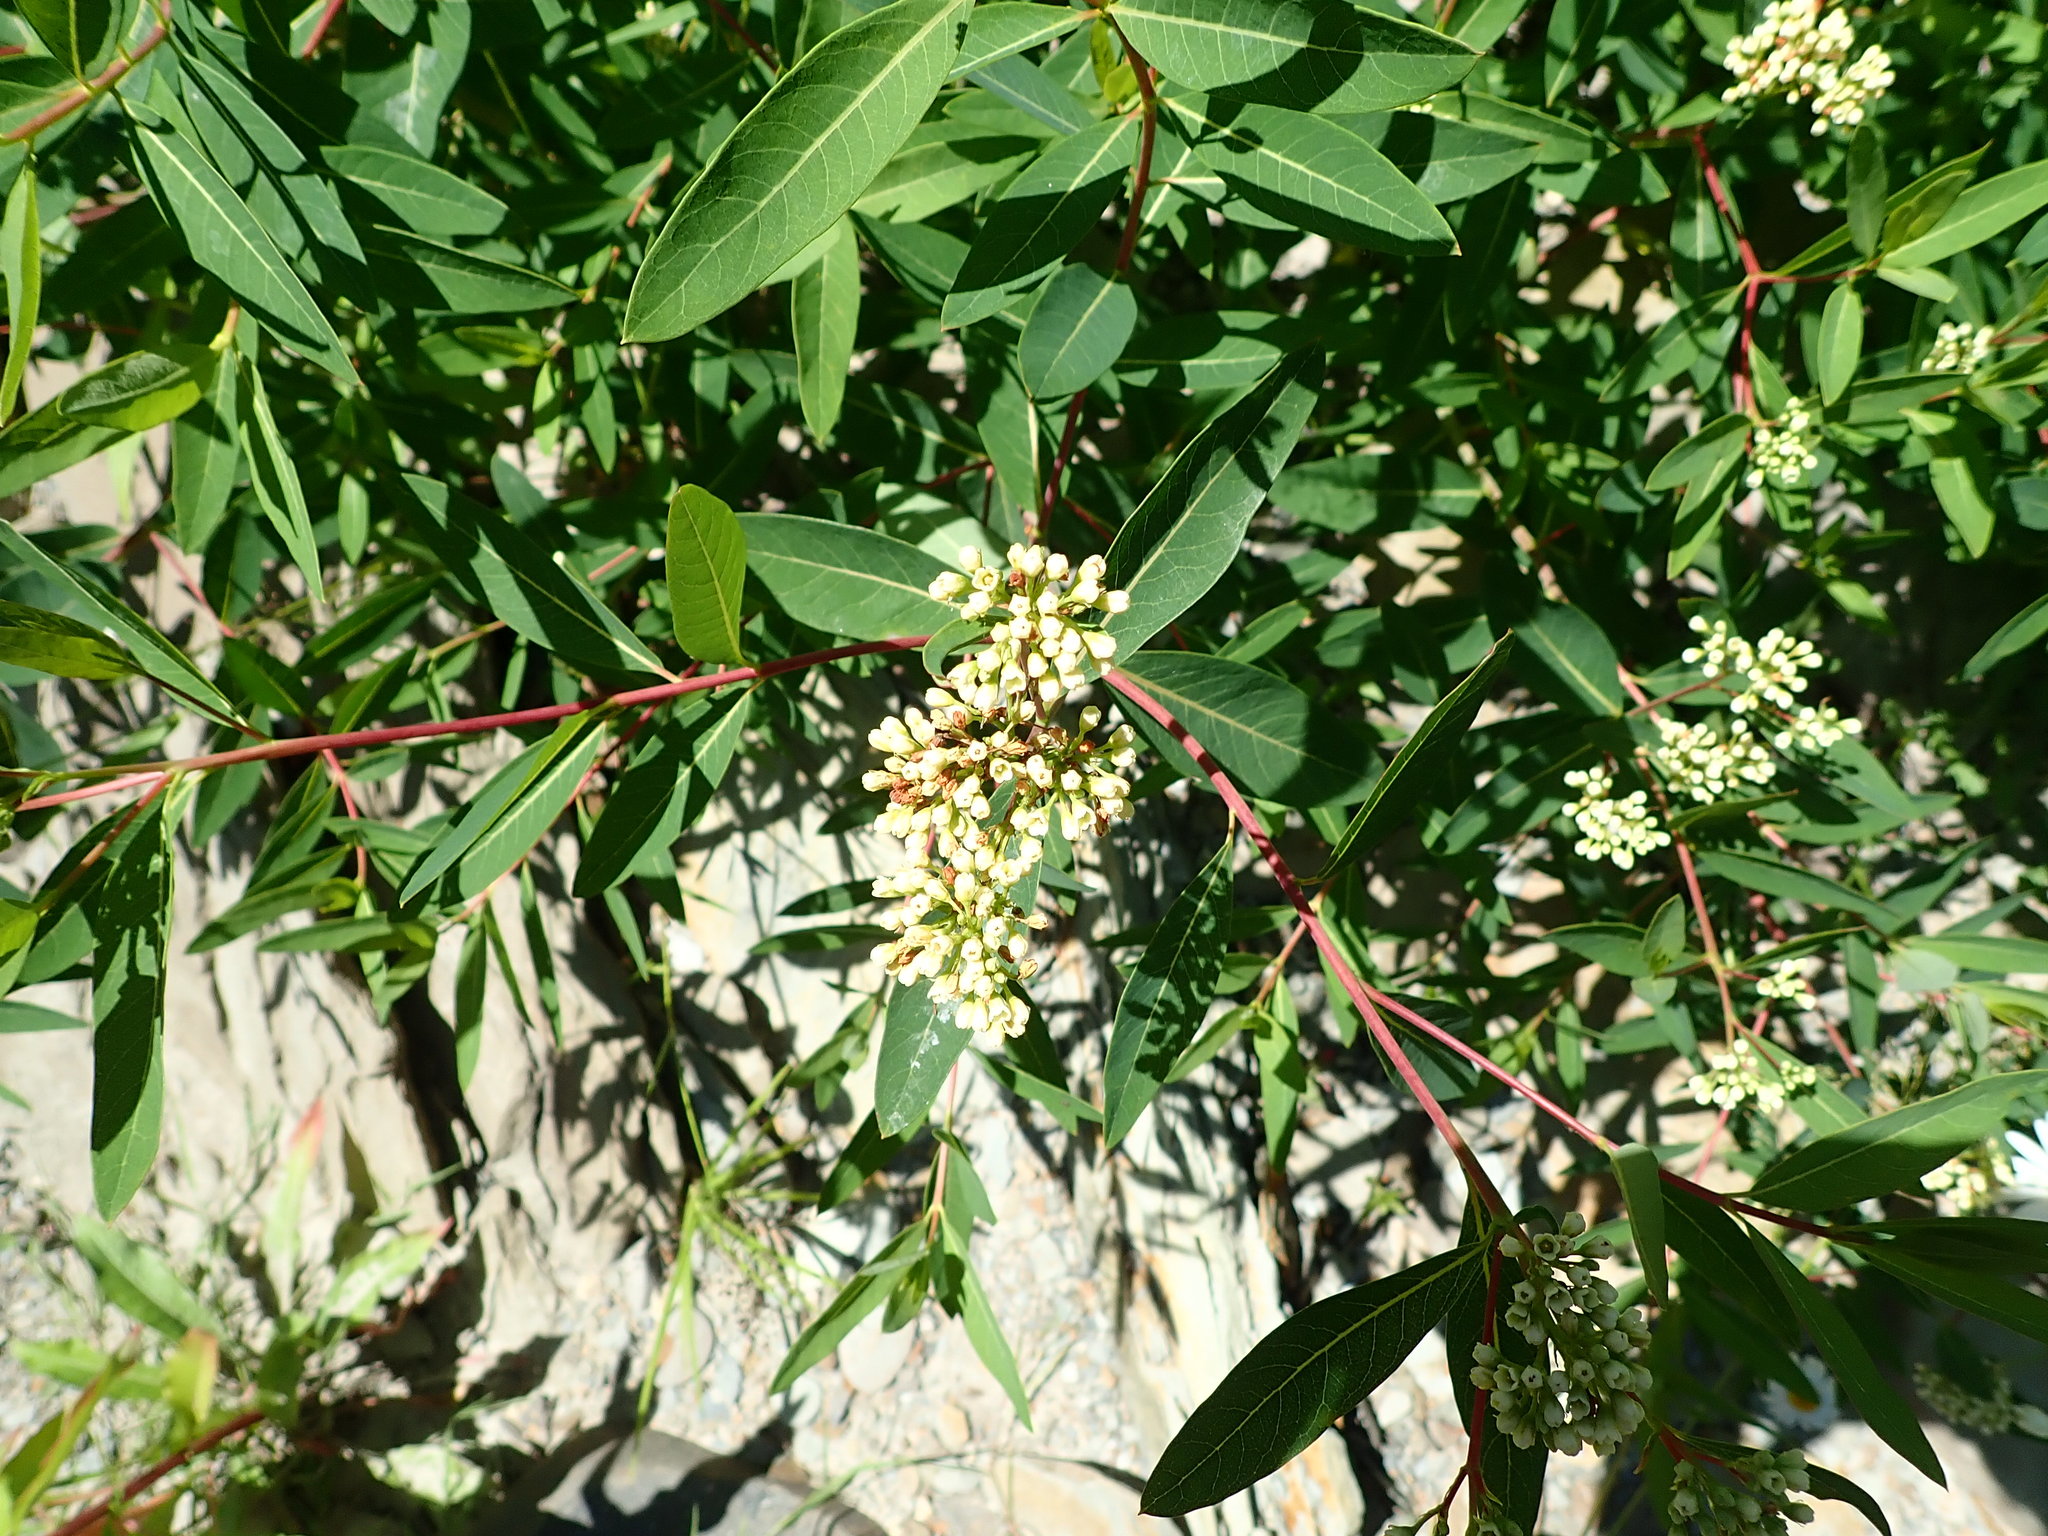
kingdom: Plantae
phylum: Tracheophyta
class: Magnoliopsida
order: Gentianales
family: Apocynaceae
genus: Apocynum
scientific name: Apocynum cannabinum
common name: Hemp dogbane
